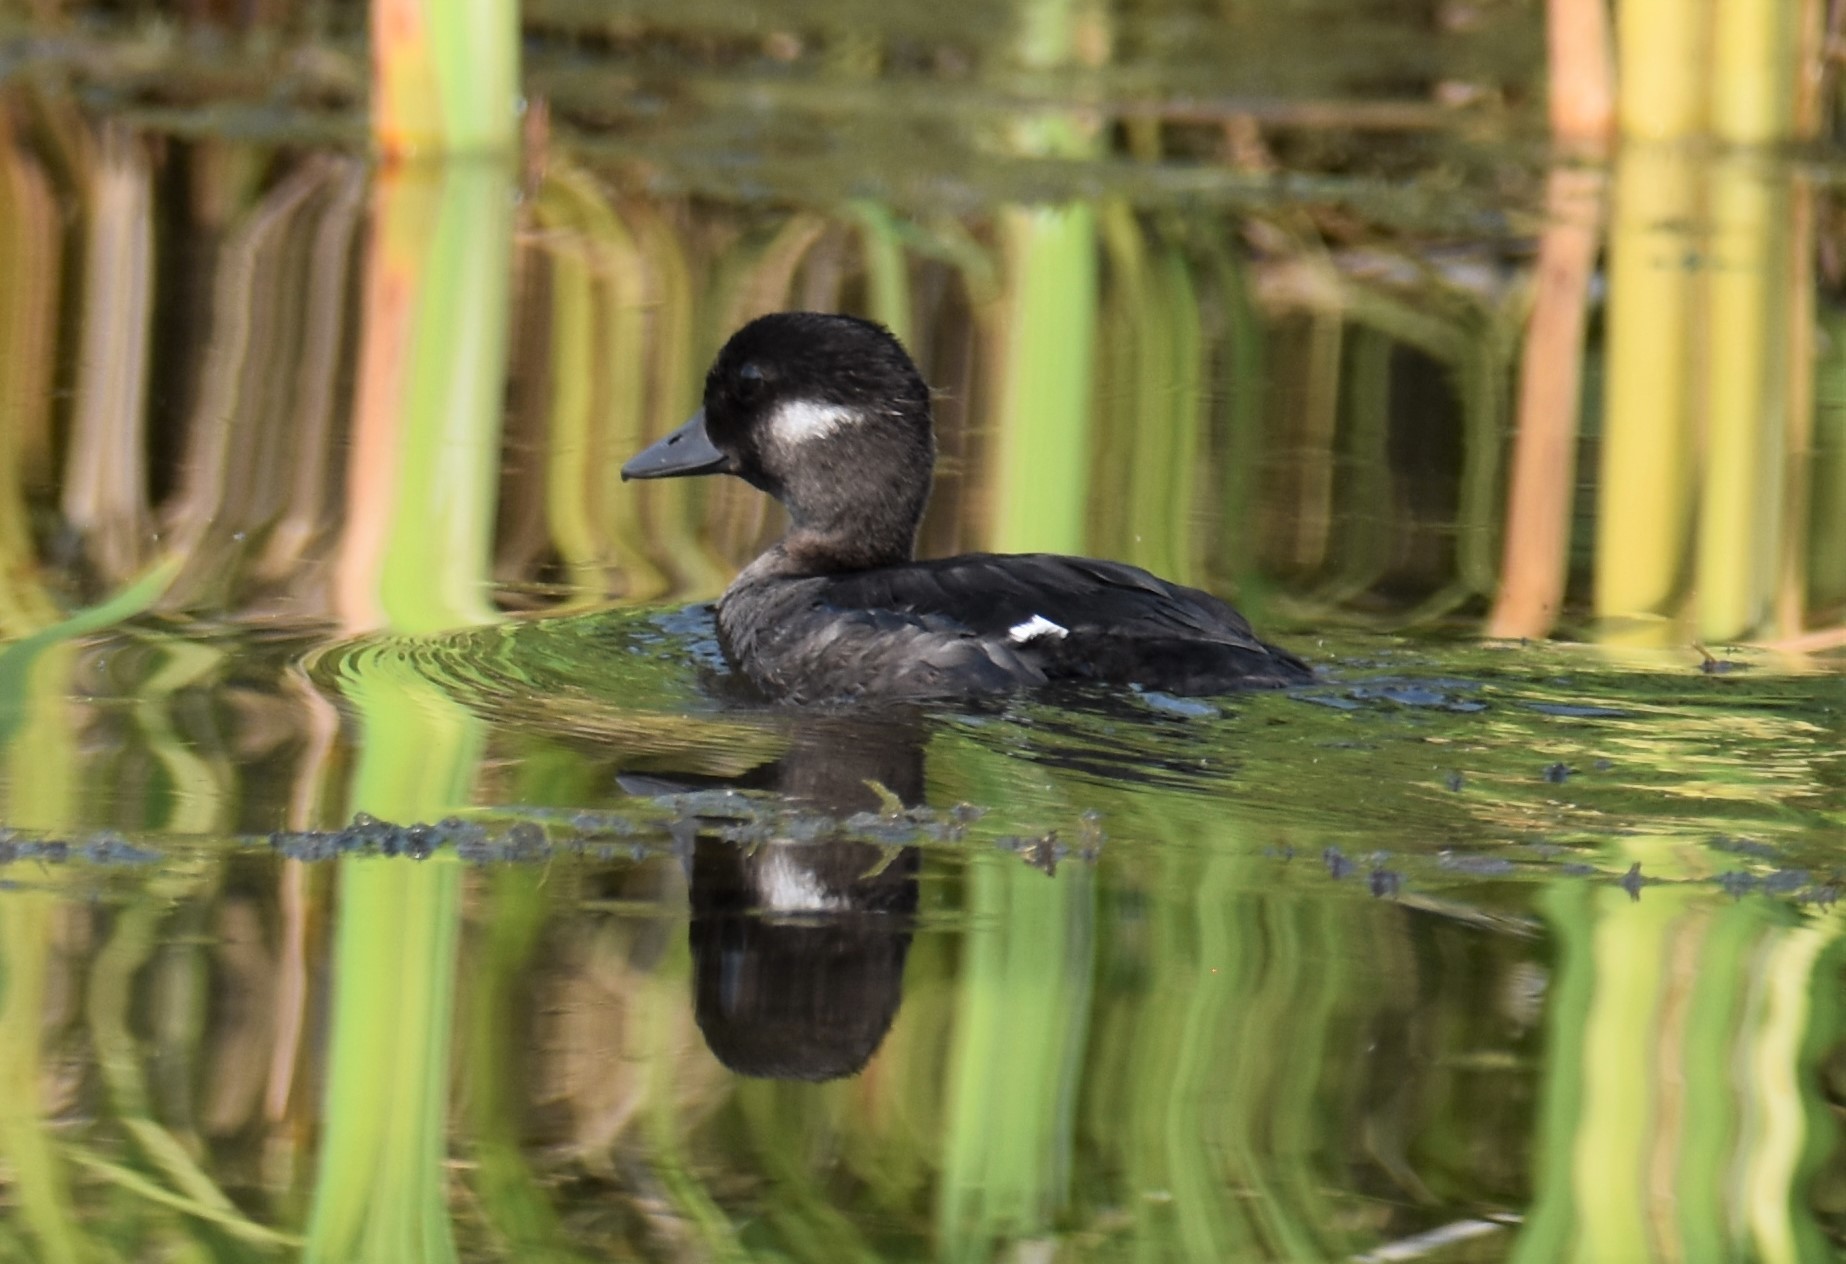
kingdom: Animalia
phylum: Chordata
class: Aves
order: Anseriformes
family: Anatidae
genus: Bucephala
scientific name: Bucephala albeola
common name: Bufflehead
